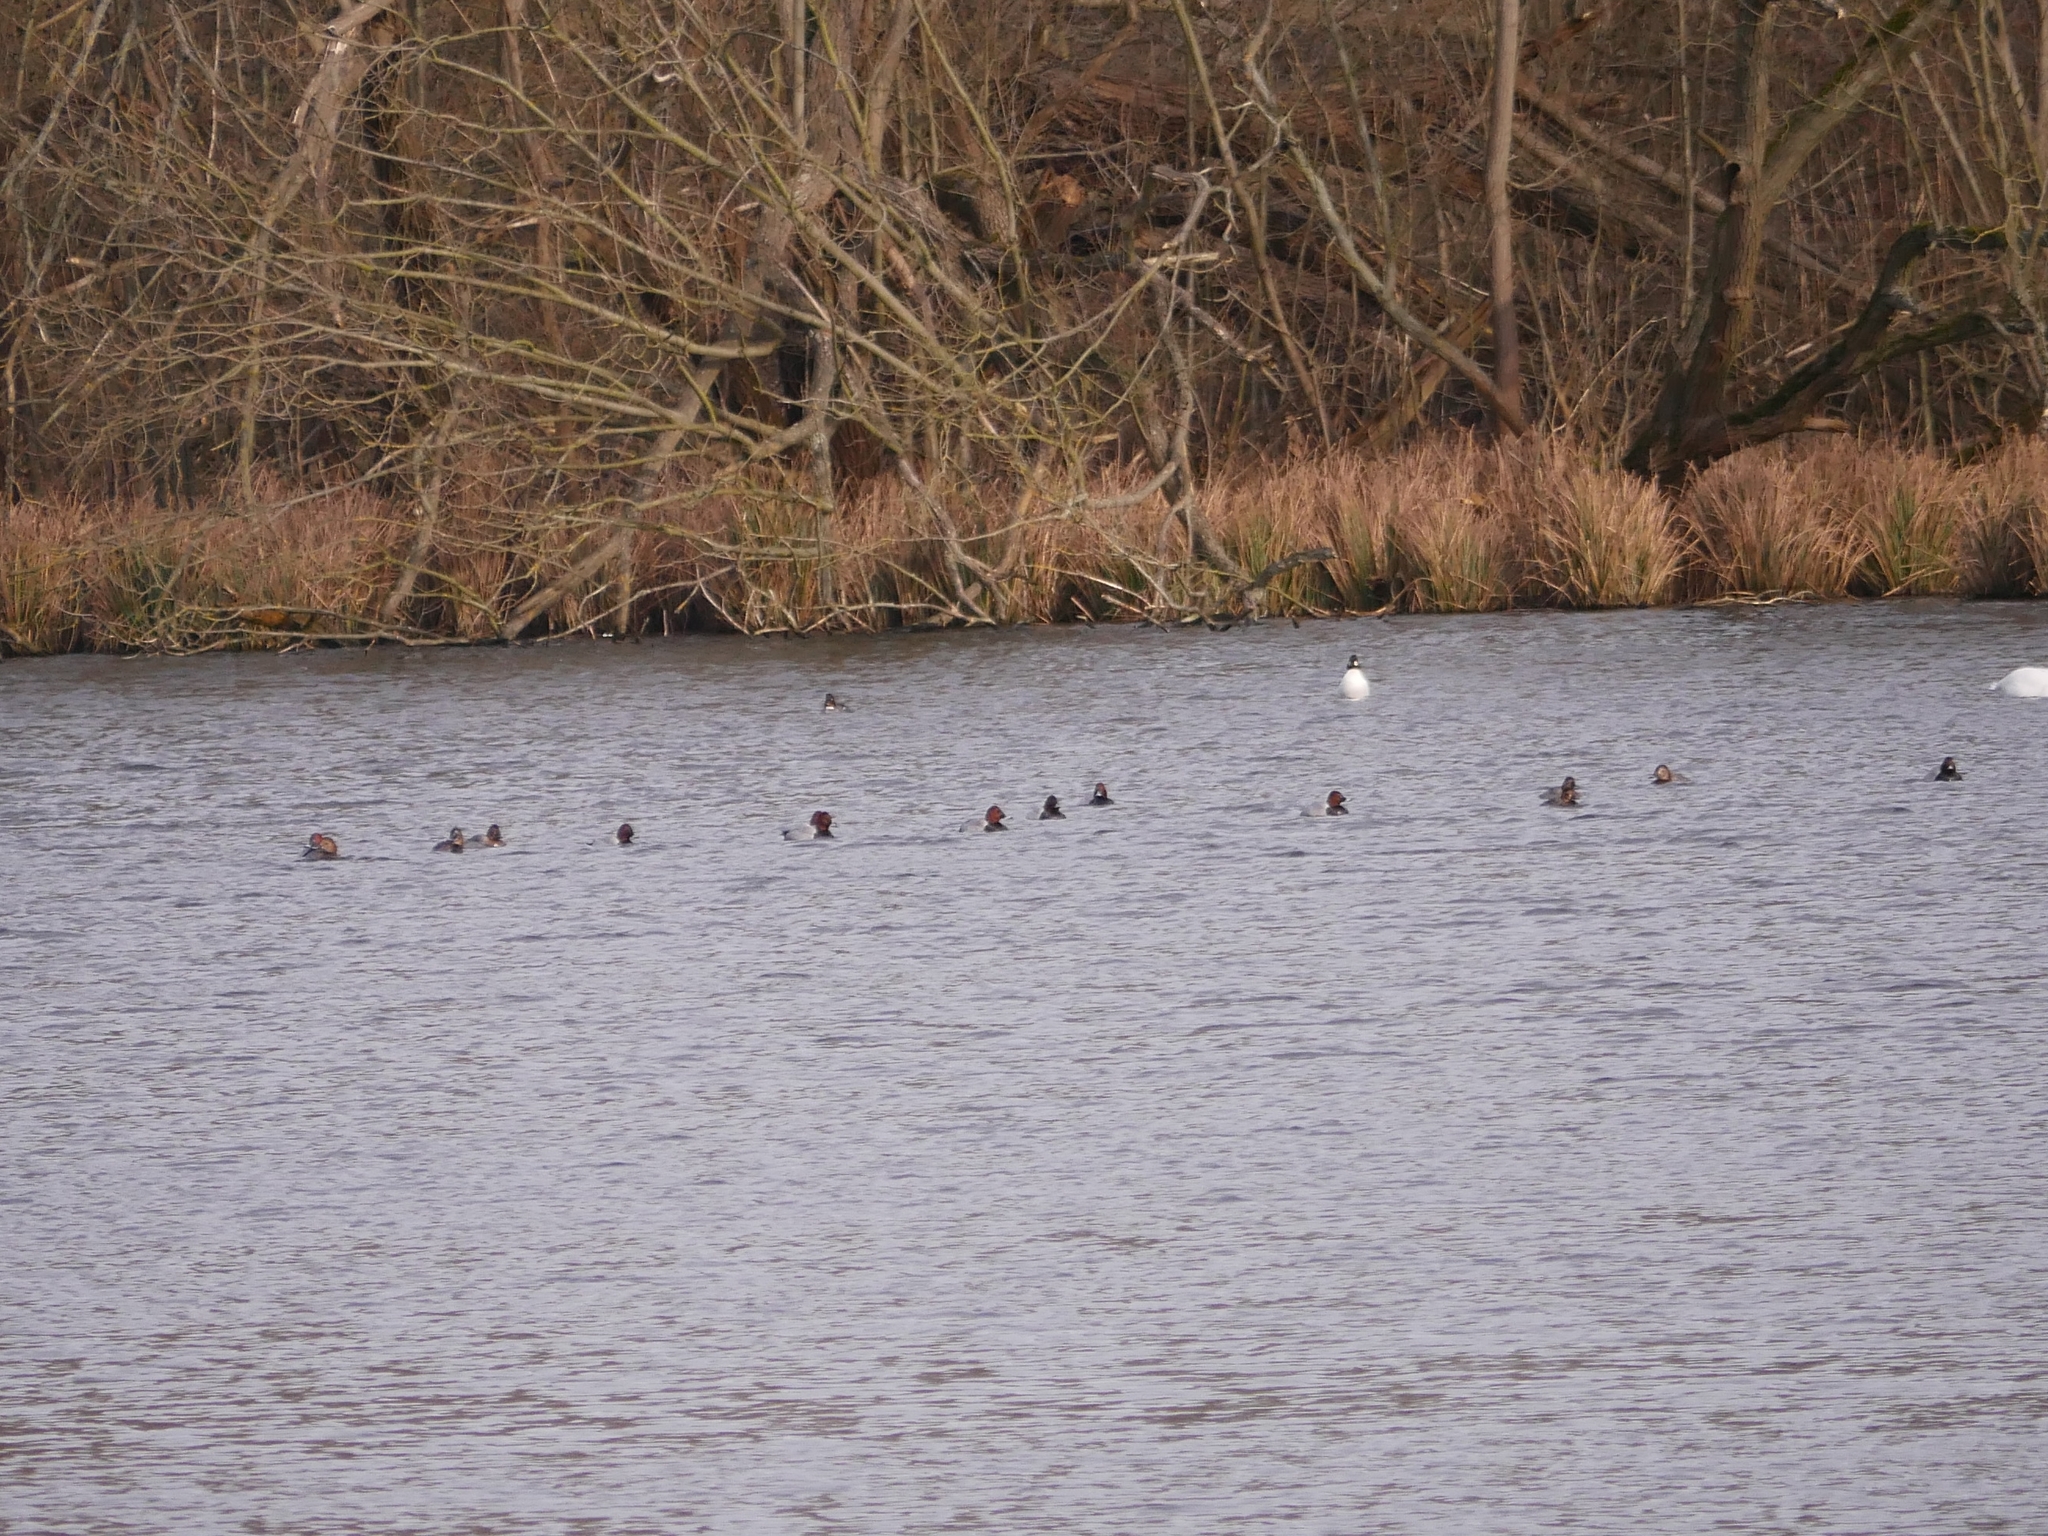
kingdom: Animalia
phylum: Chordata
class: Aves
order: Anseriformes
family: Anatidae
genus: Aythya
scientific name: Aythya ferina
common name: Common pochard
